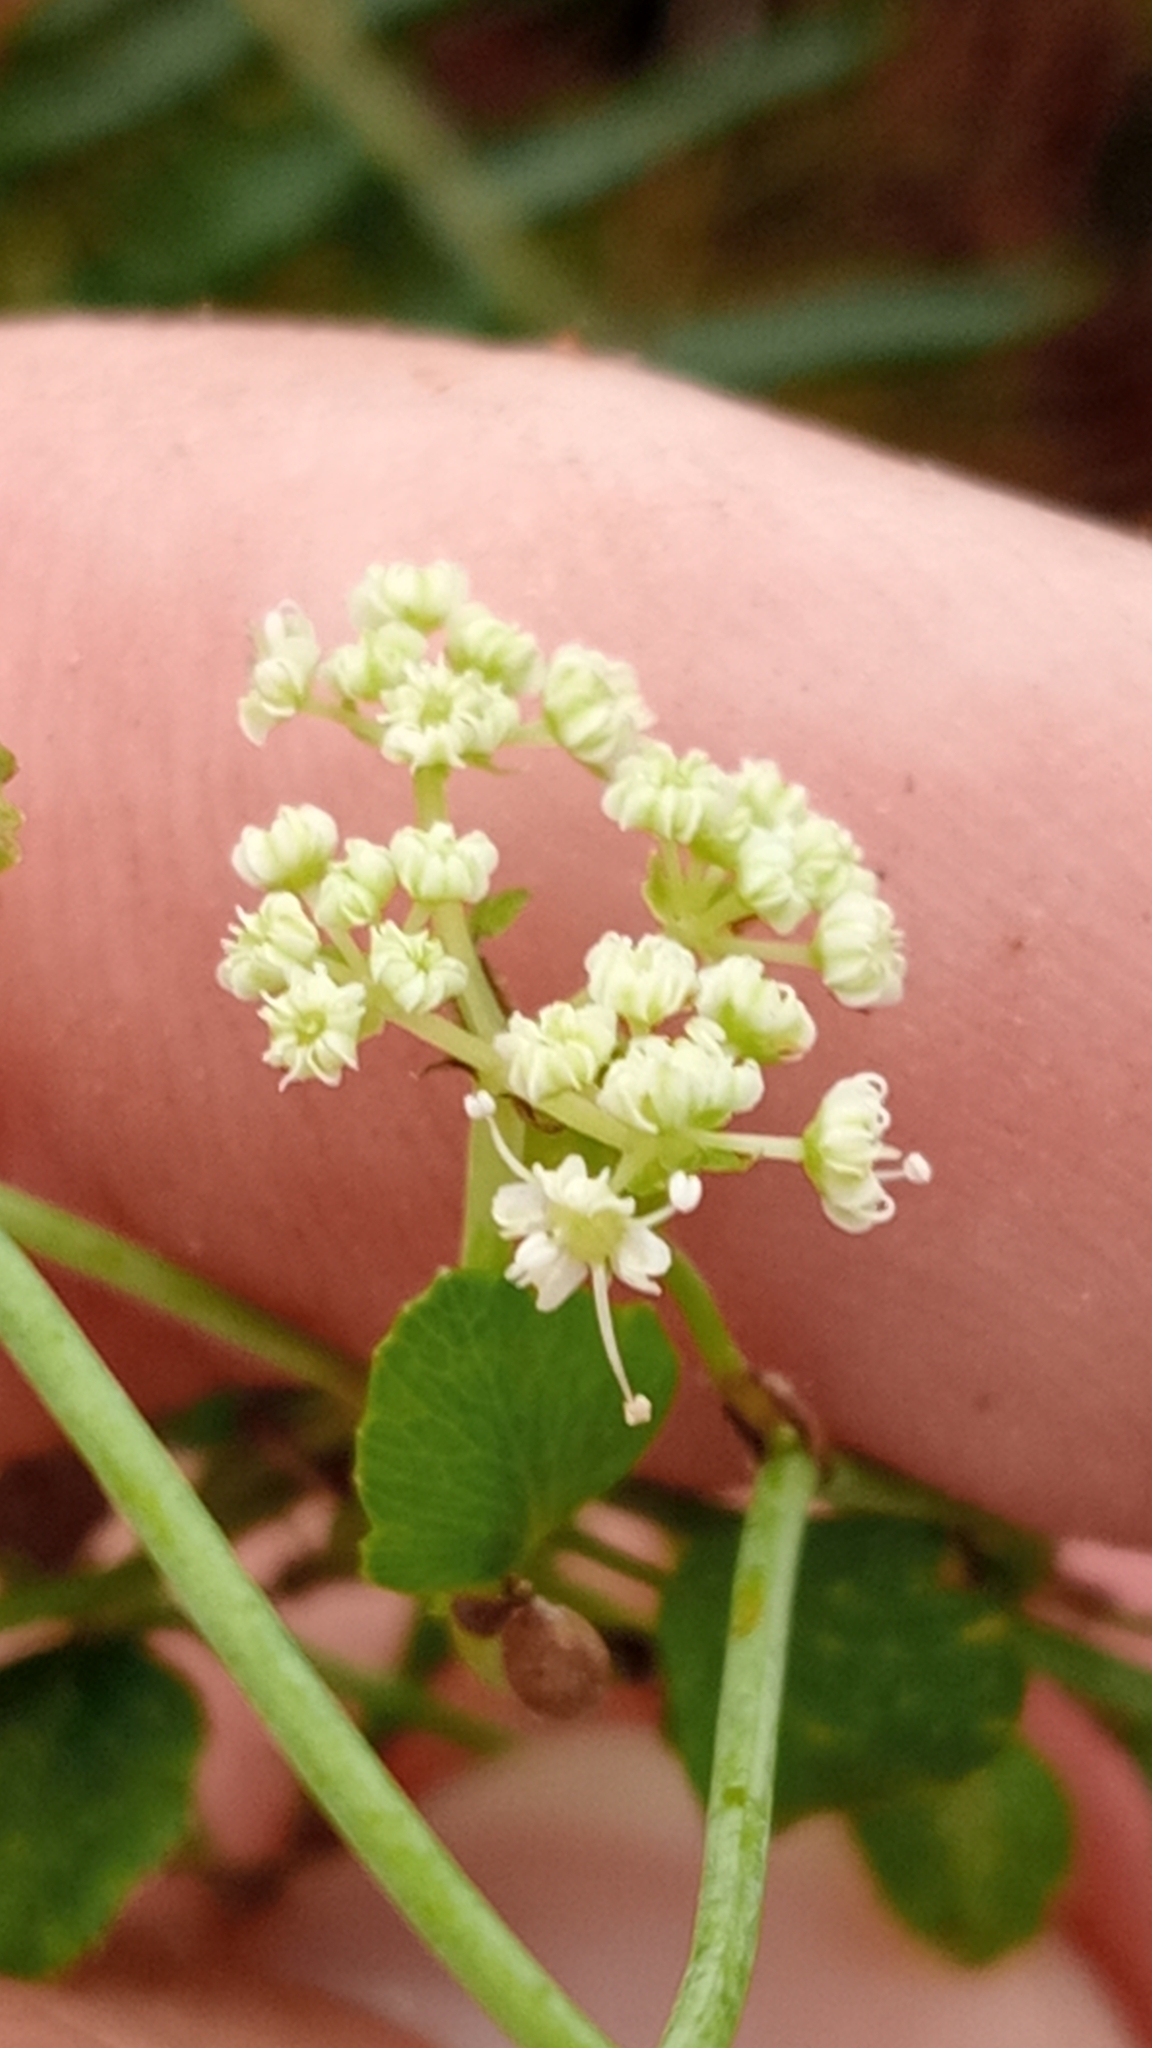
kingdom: Plantae
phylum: Tracheophyta
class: Magnoliopsida
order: Apiales
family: Apiaceae
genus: Scandia
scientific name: Scandia geniculata
